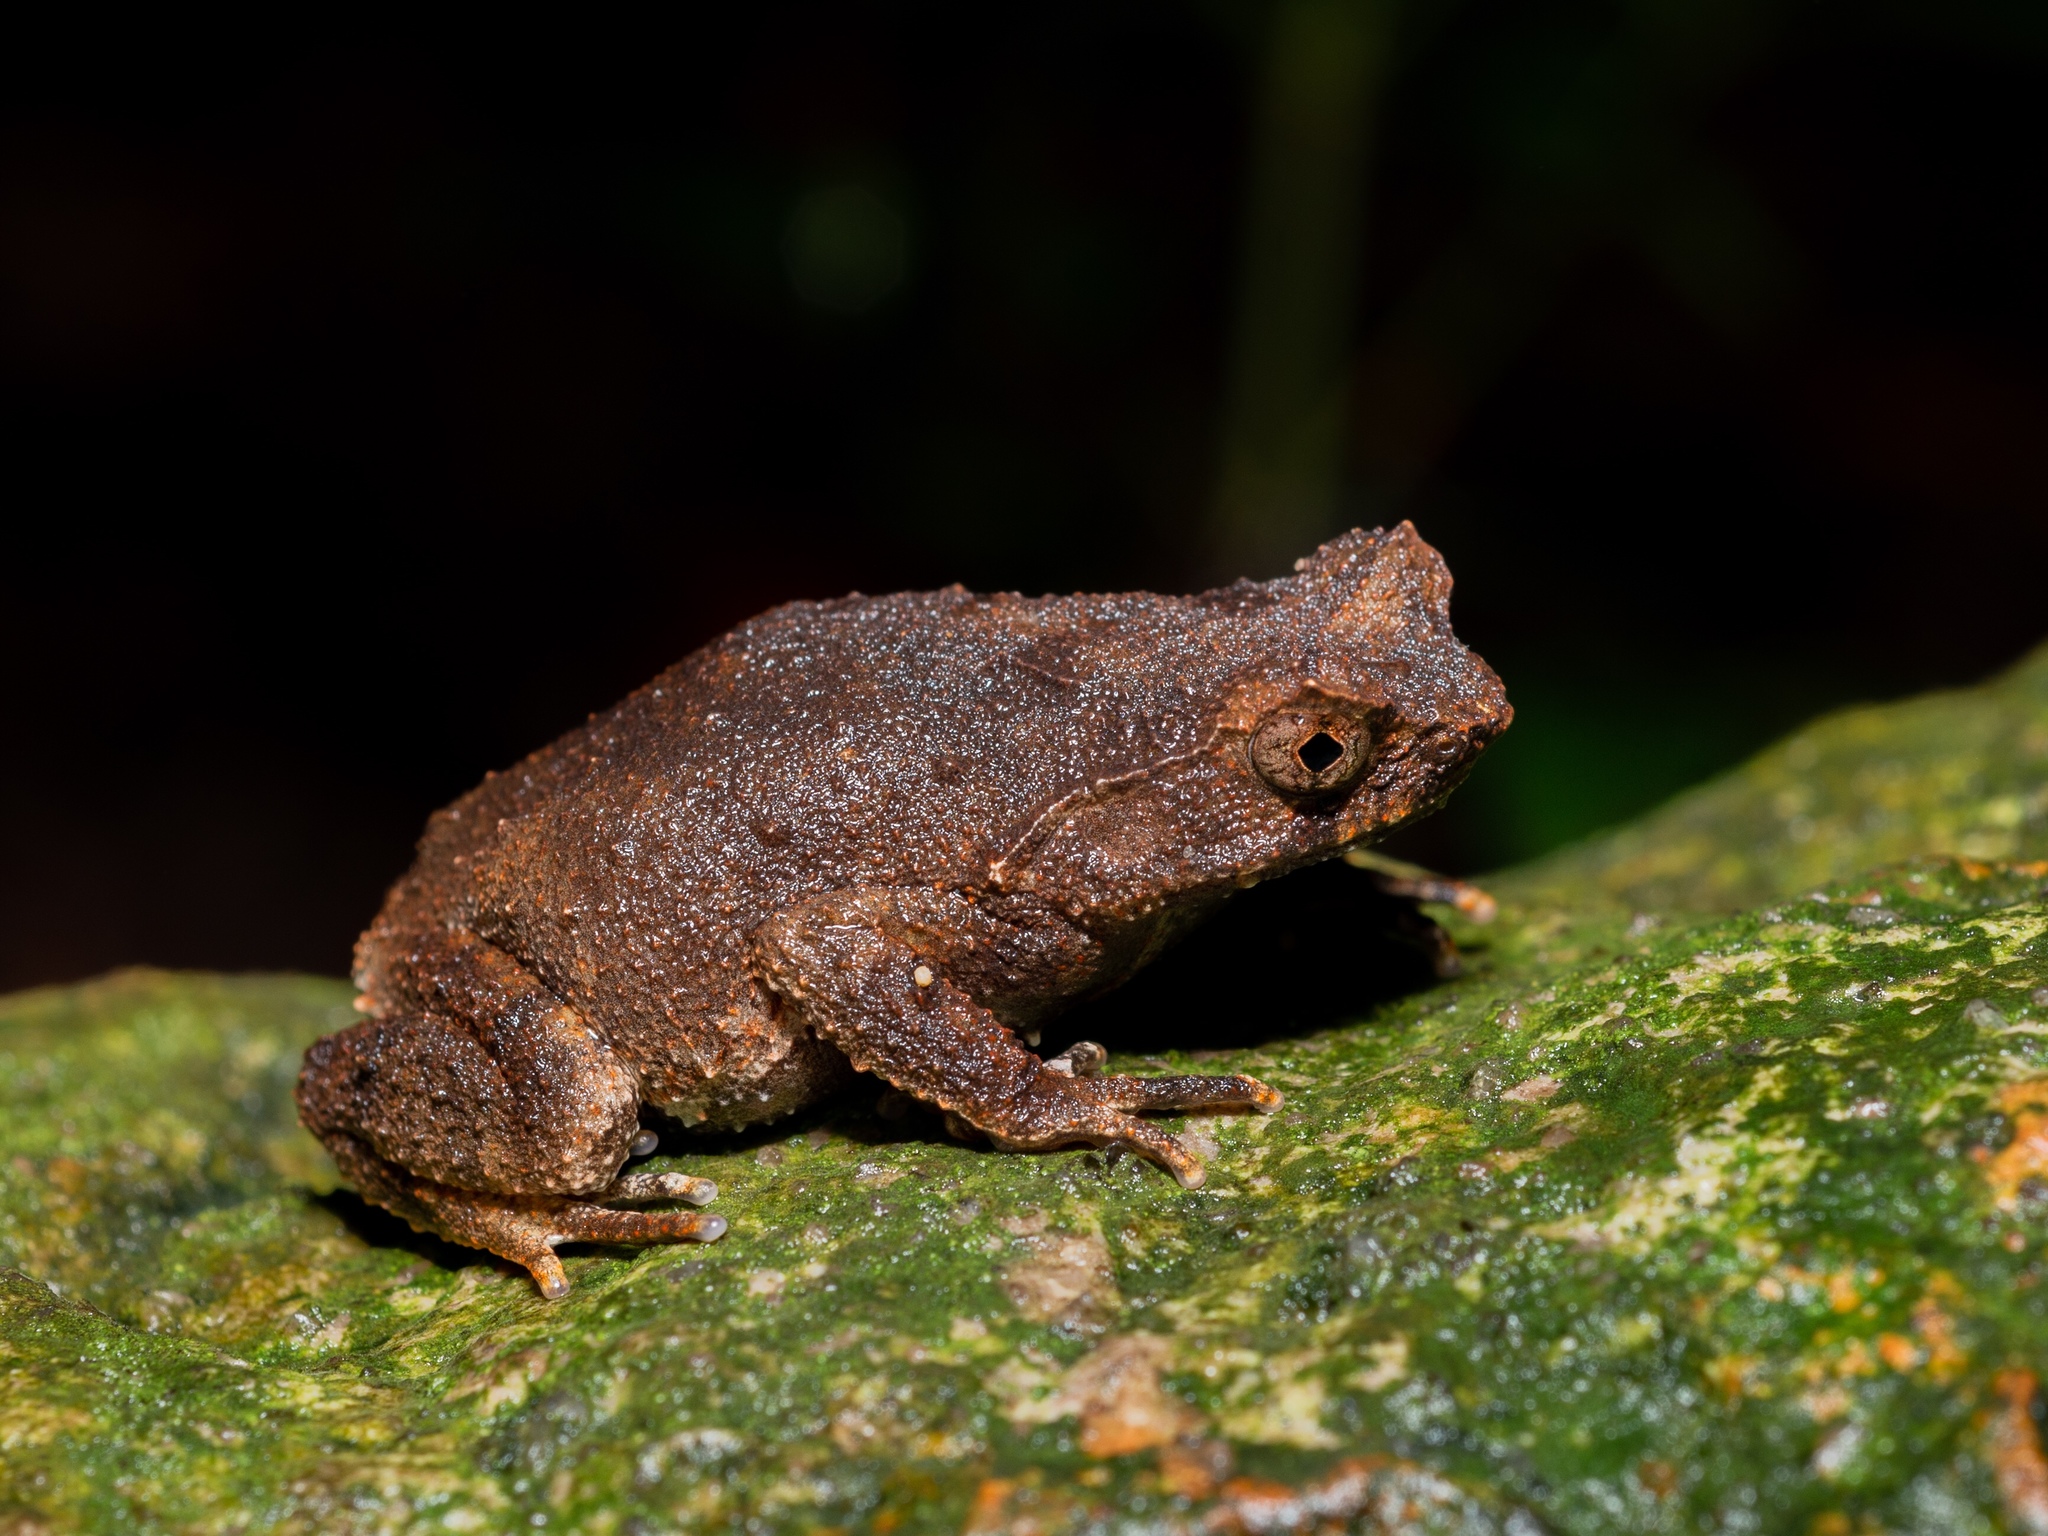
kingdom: Animalia
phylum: Chordata
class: Amphibia
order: Anura
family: Megophryidae
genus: Megophrys
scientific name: Megophrys brachykolos
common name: Short-legged horned toad
